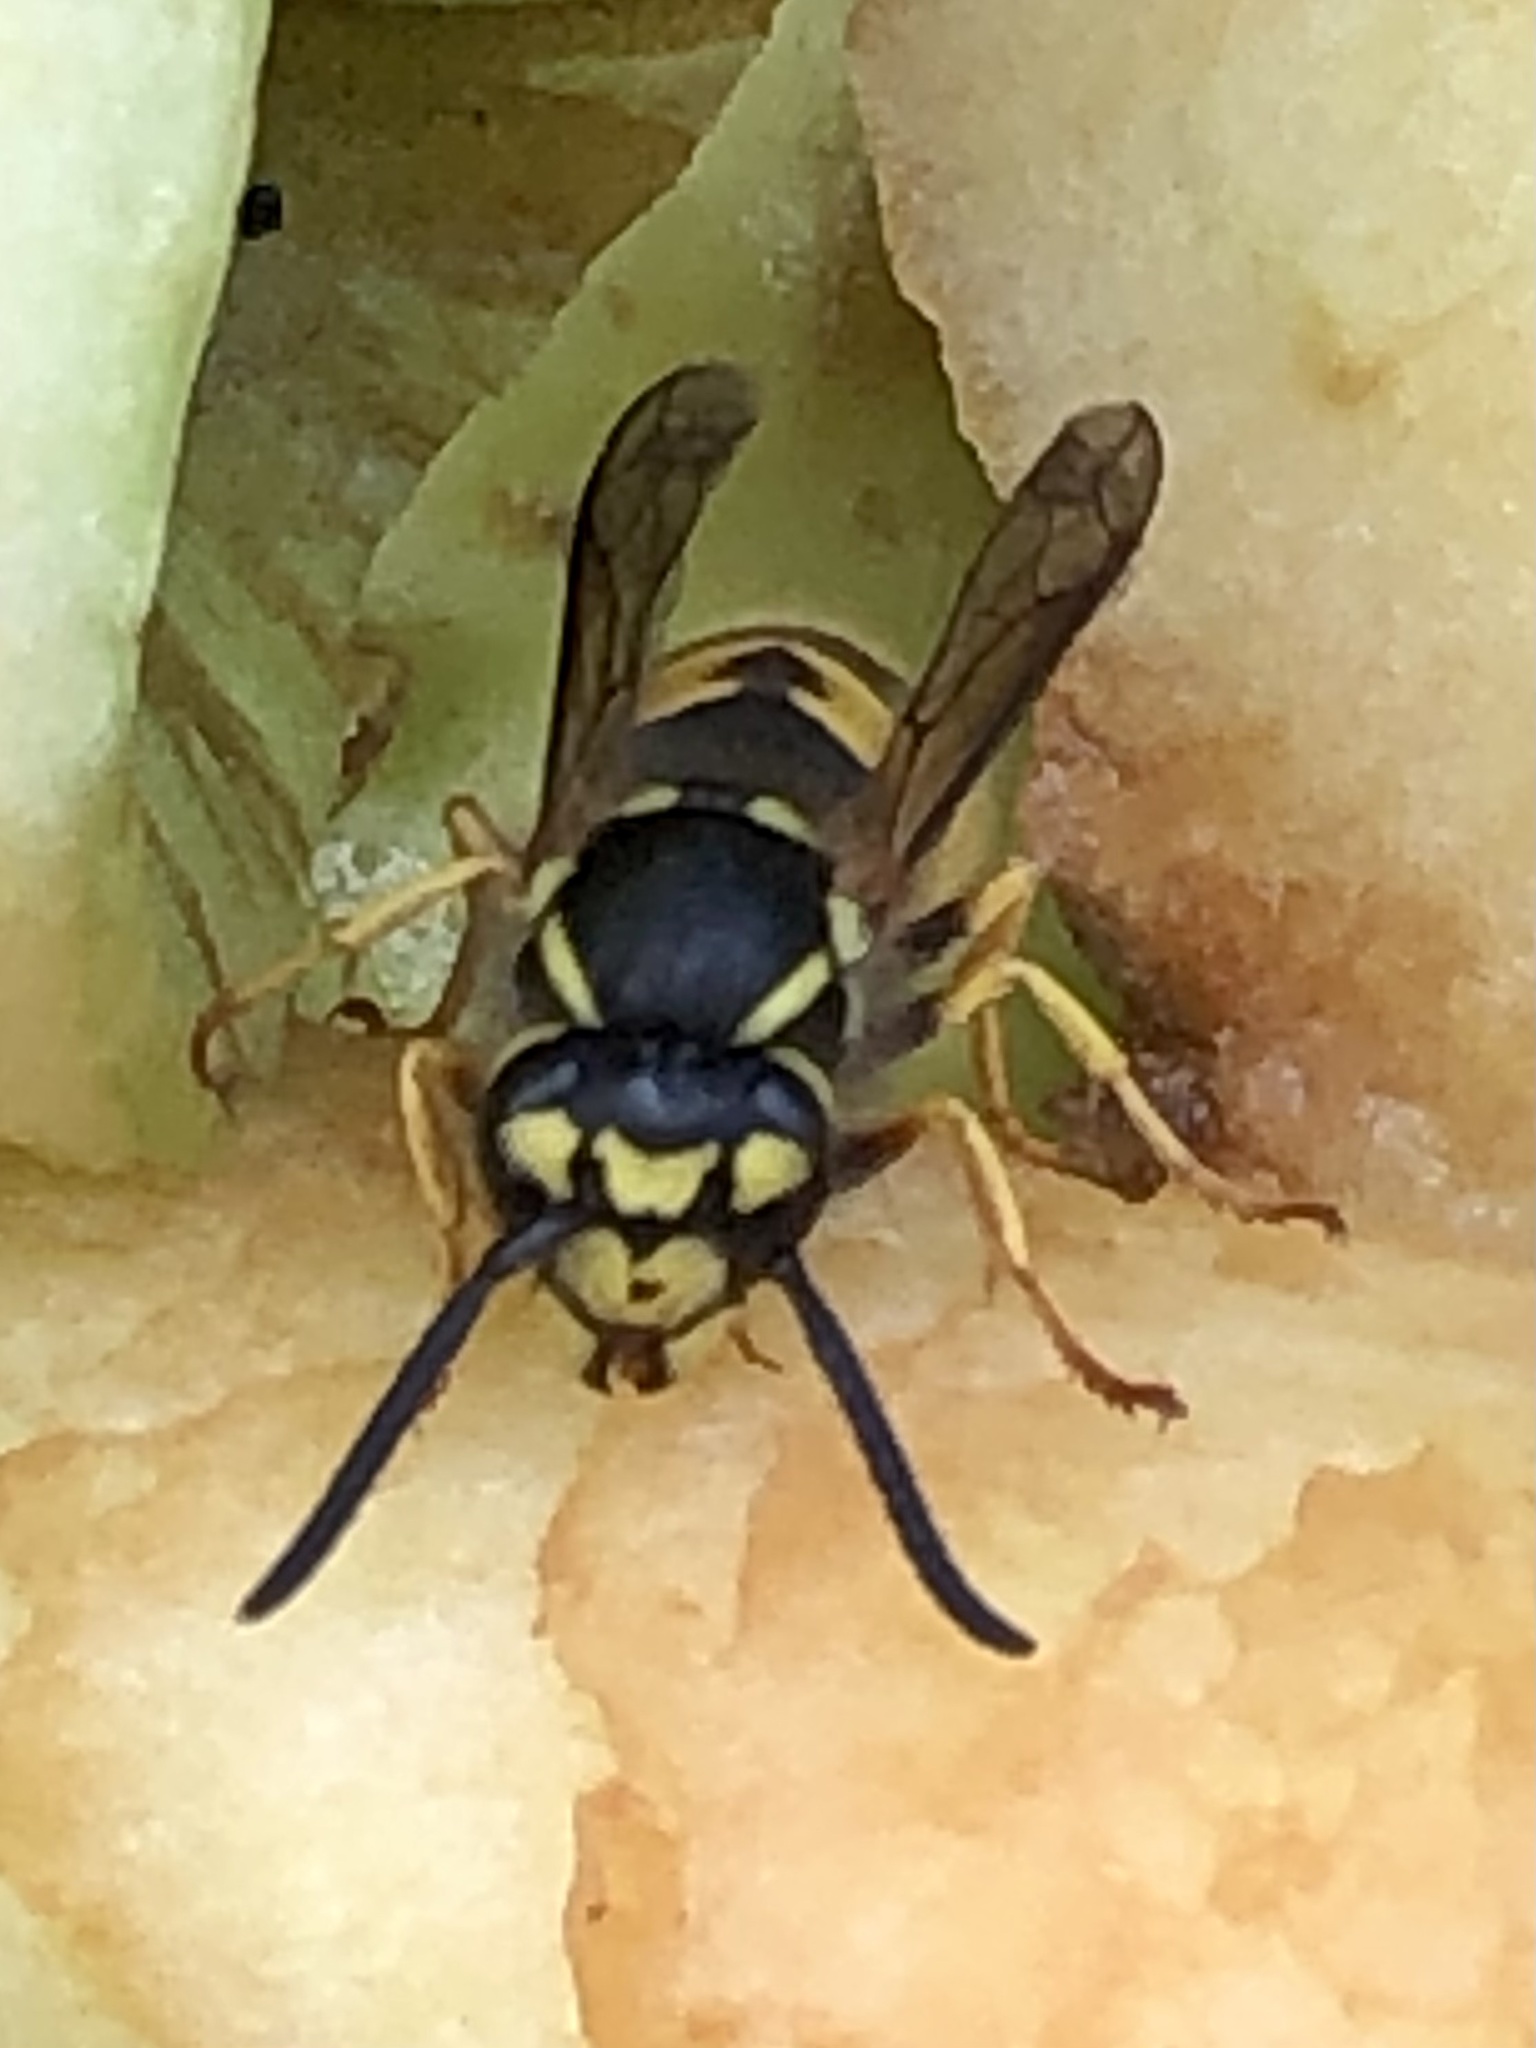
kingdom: Animalia
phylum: Arthropoda
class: Insecta
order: Hymenoptera
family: Vespidae
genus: Vespula
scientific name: Vespula germanica
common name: German wasp
